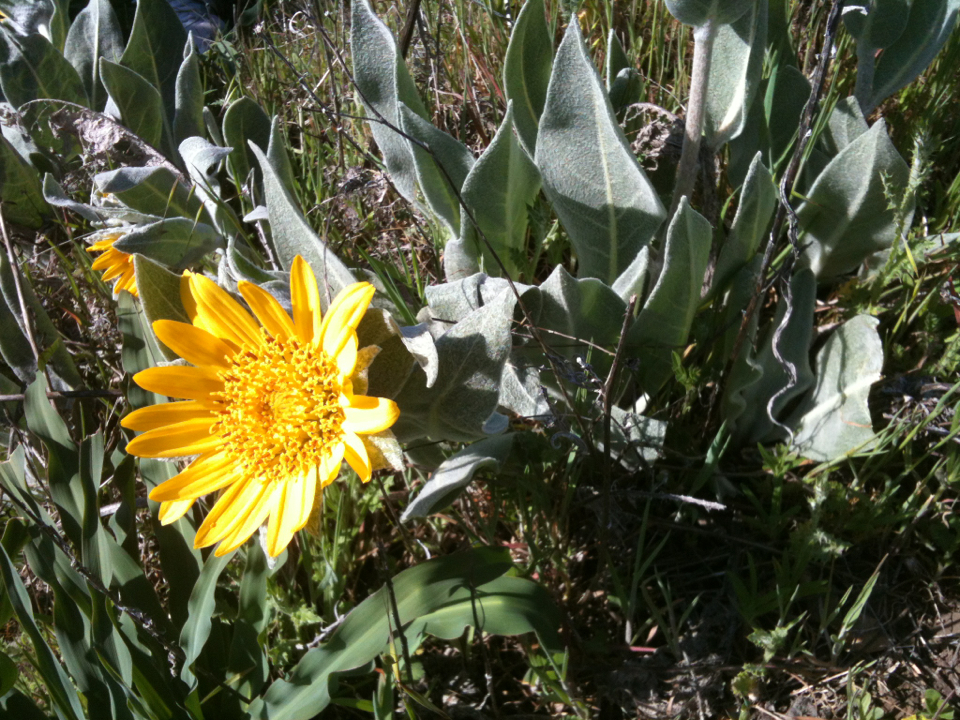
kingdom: Plantae
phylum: Tracheophyta
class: Magnoliopsida
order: Asterales
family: Asteraceae
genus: Wyethia
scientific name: Wyethia helenioides
